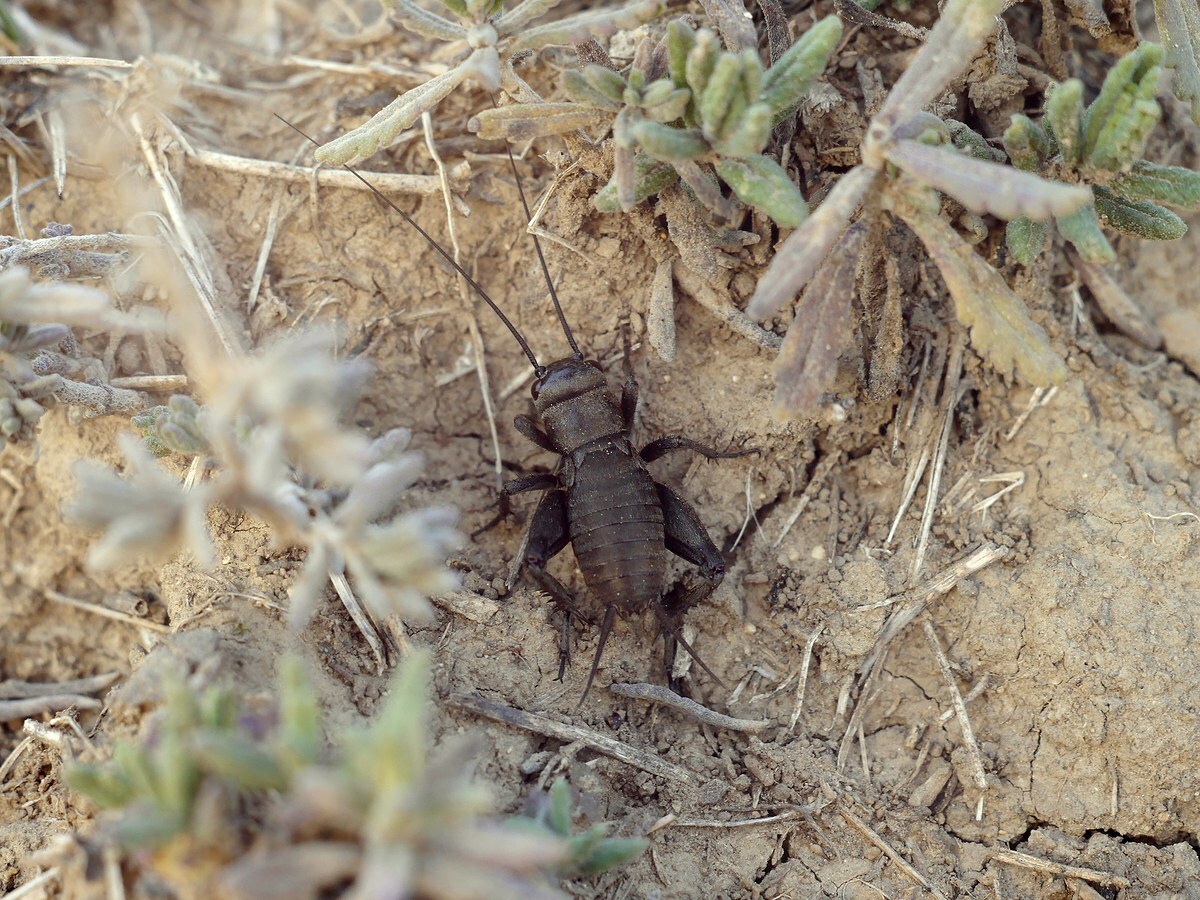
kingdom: Animalia
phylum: Arthropoda
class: Insecta
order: Orthoptera
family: Gryllidae
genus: Melanogryllus
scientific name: Melanogryllus desertus
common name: Desert cricket
